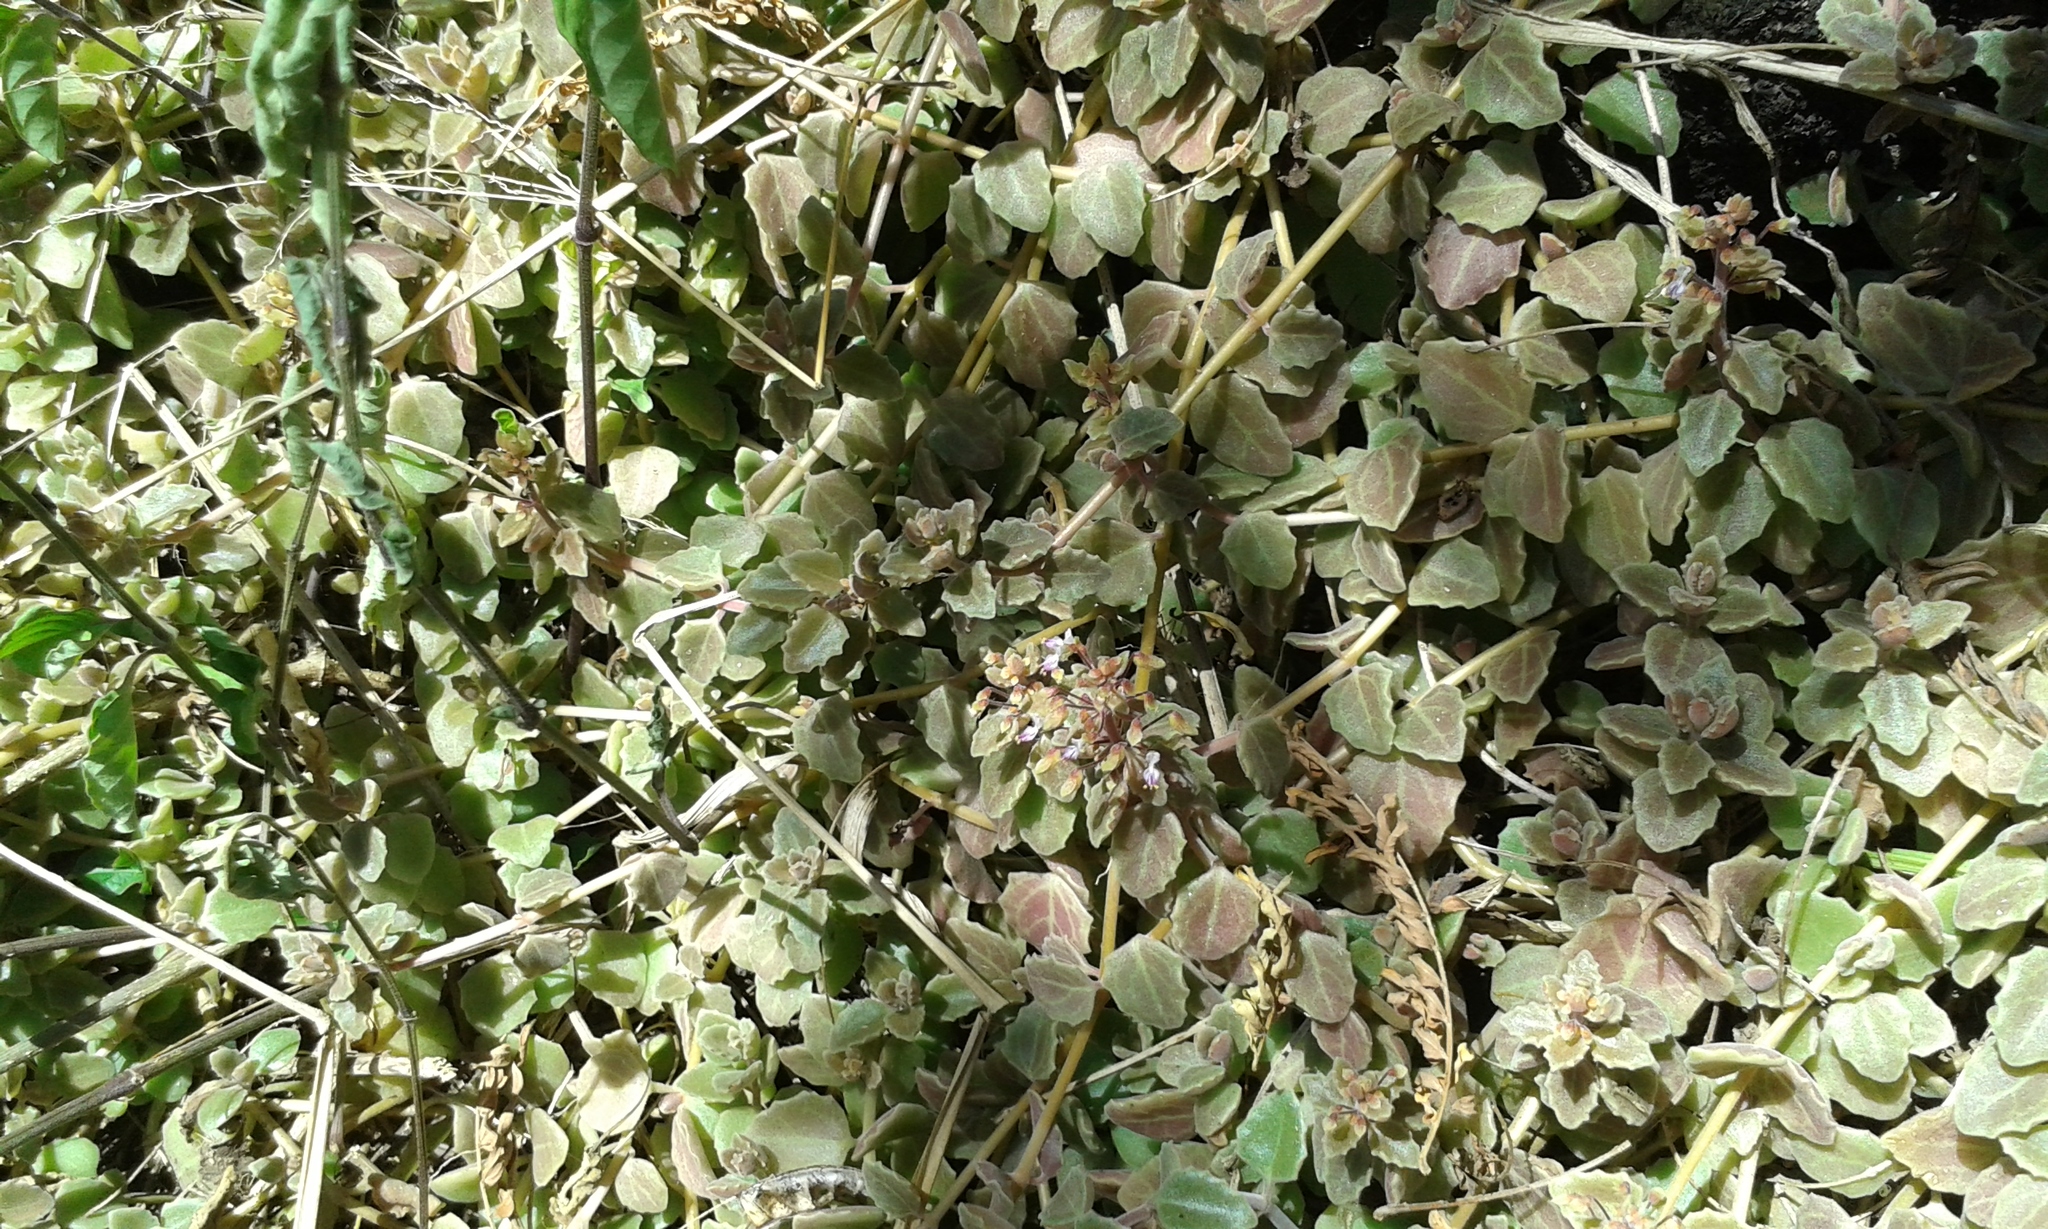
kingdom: Plantae
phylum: Tracheophyta
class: Magnoliopsida
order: Lamiales
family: Lamiaceae
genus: Coleus
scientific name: Coleus prostratus
